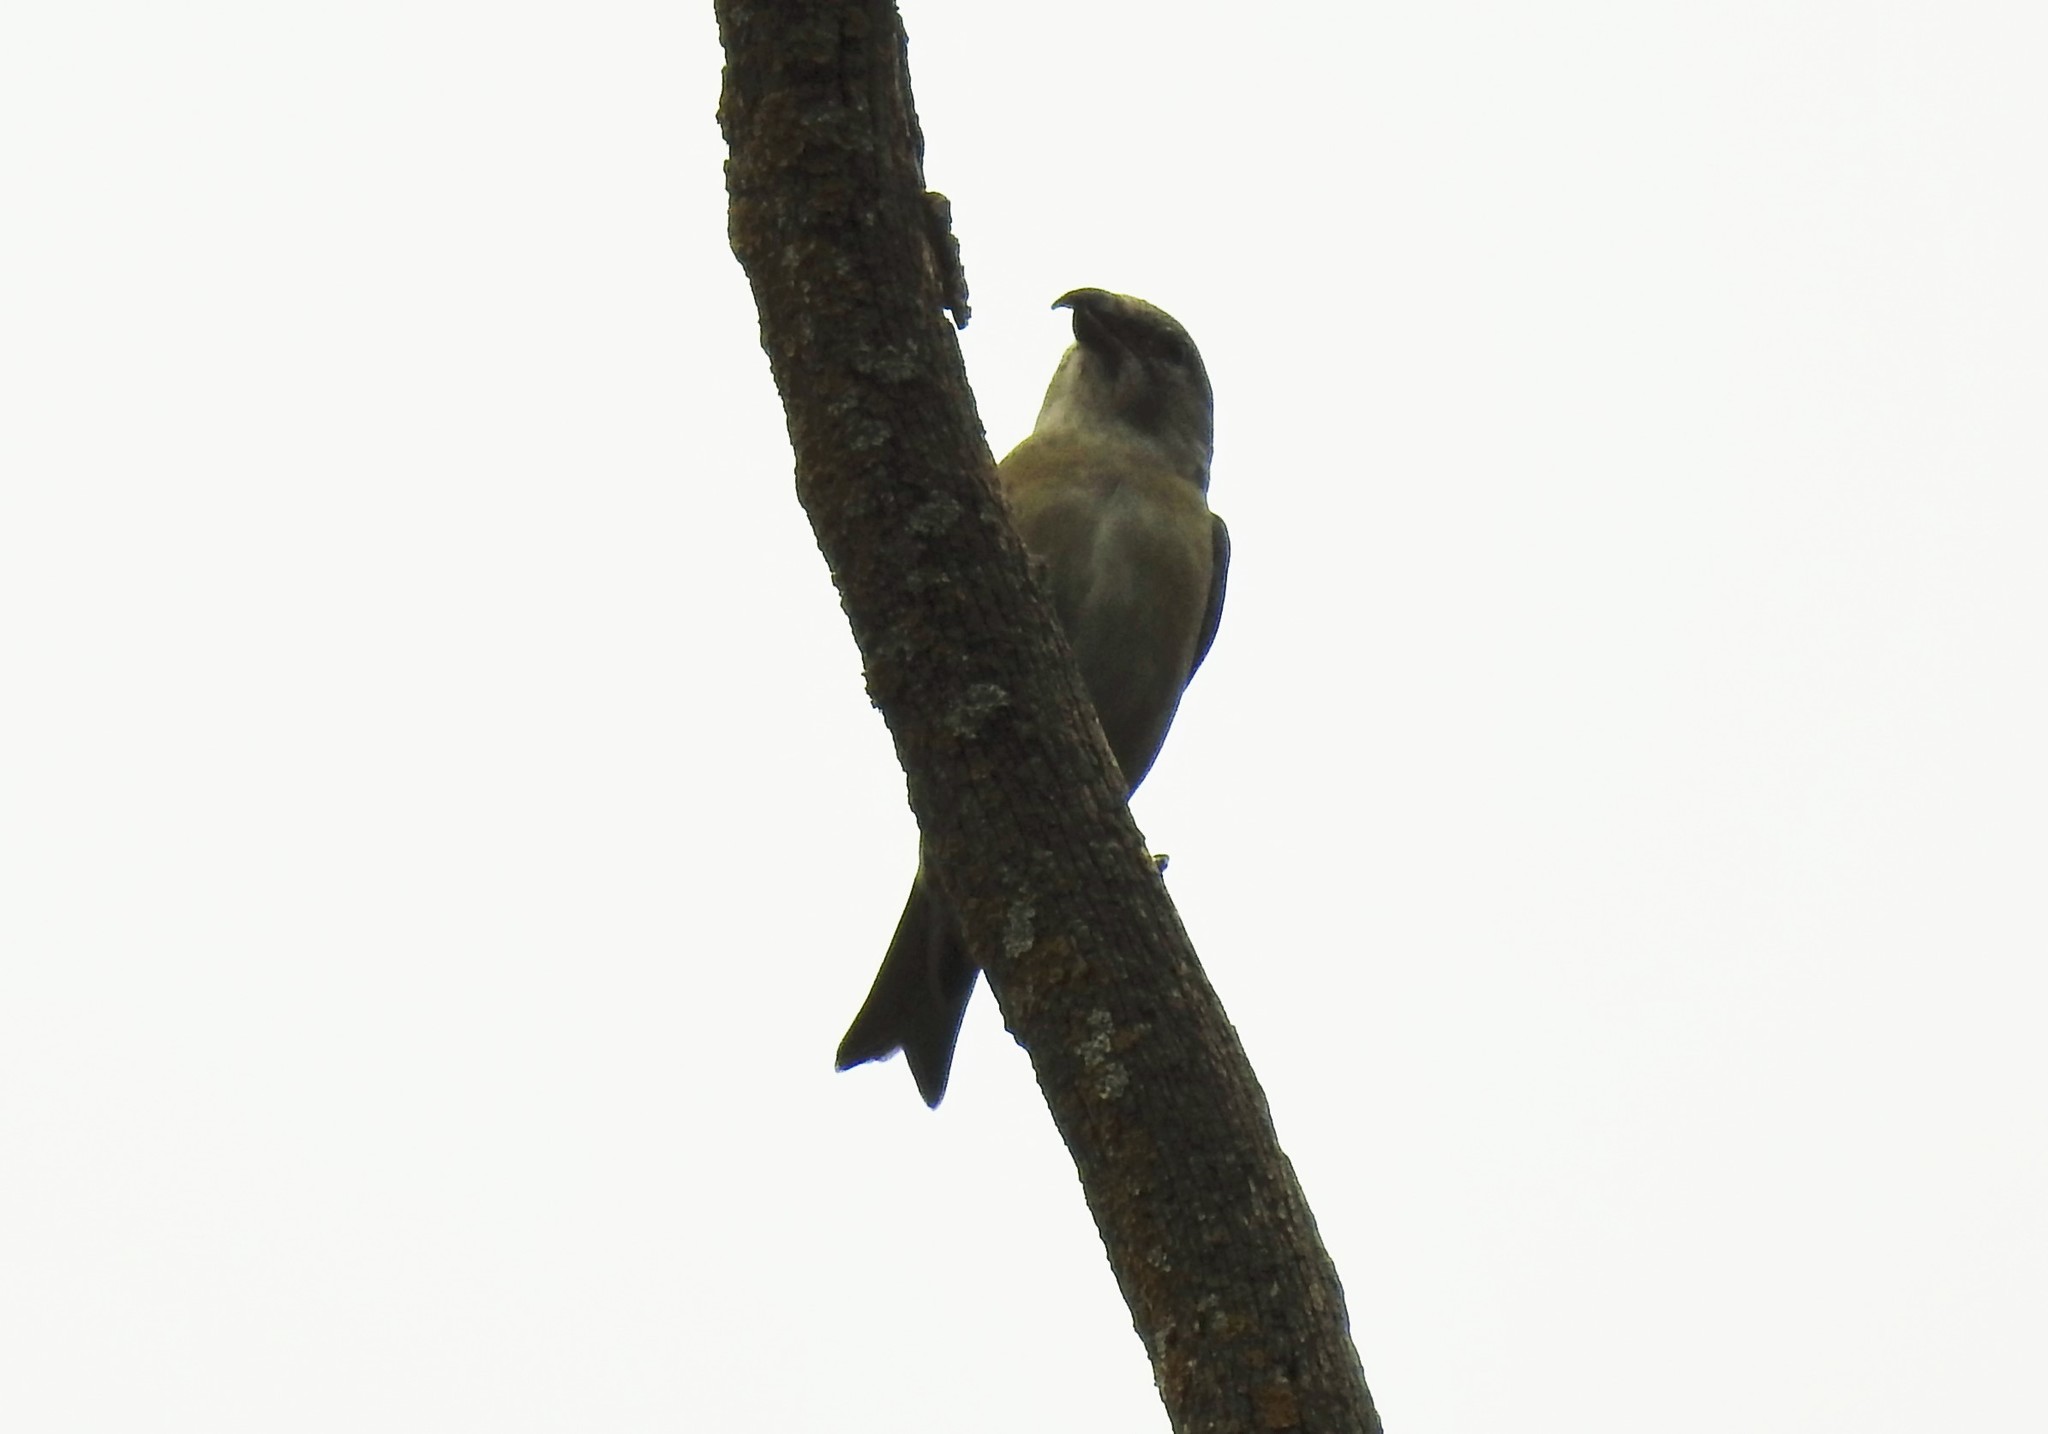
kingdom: Animalia
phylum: Chordata
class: Aves
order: Passeriformes
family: Fringillidae
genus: Loxia
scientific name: Loxia curvirostra
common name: Red crossbill
